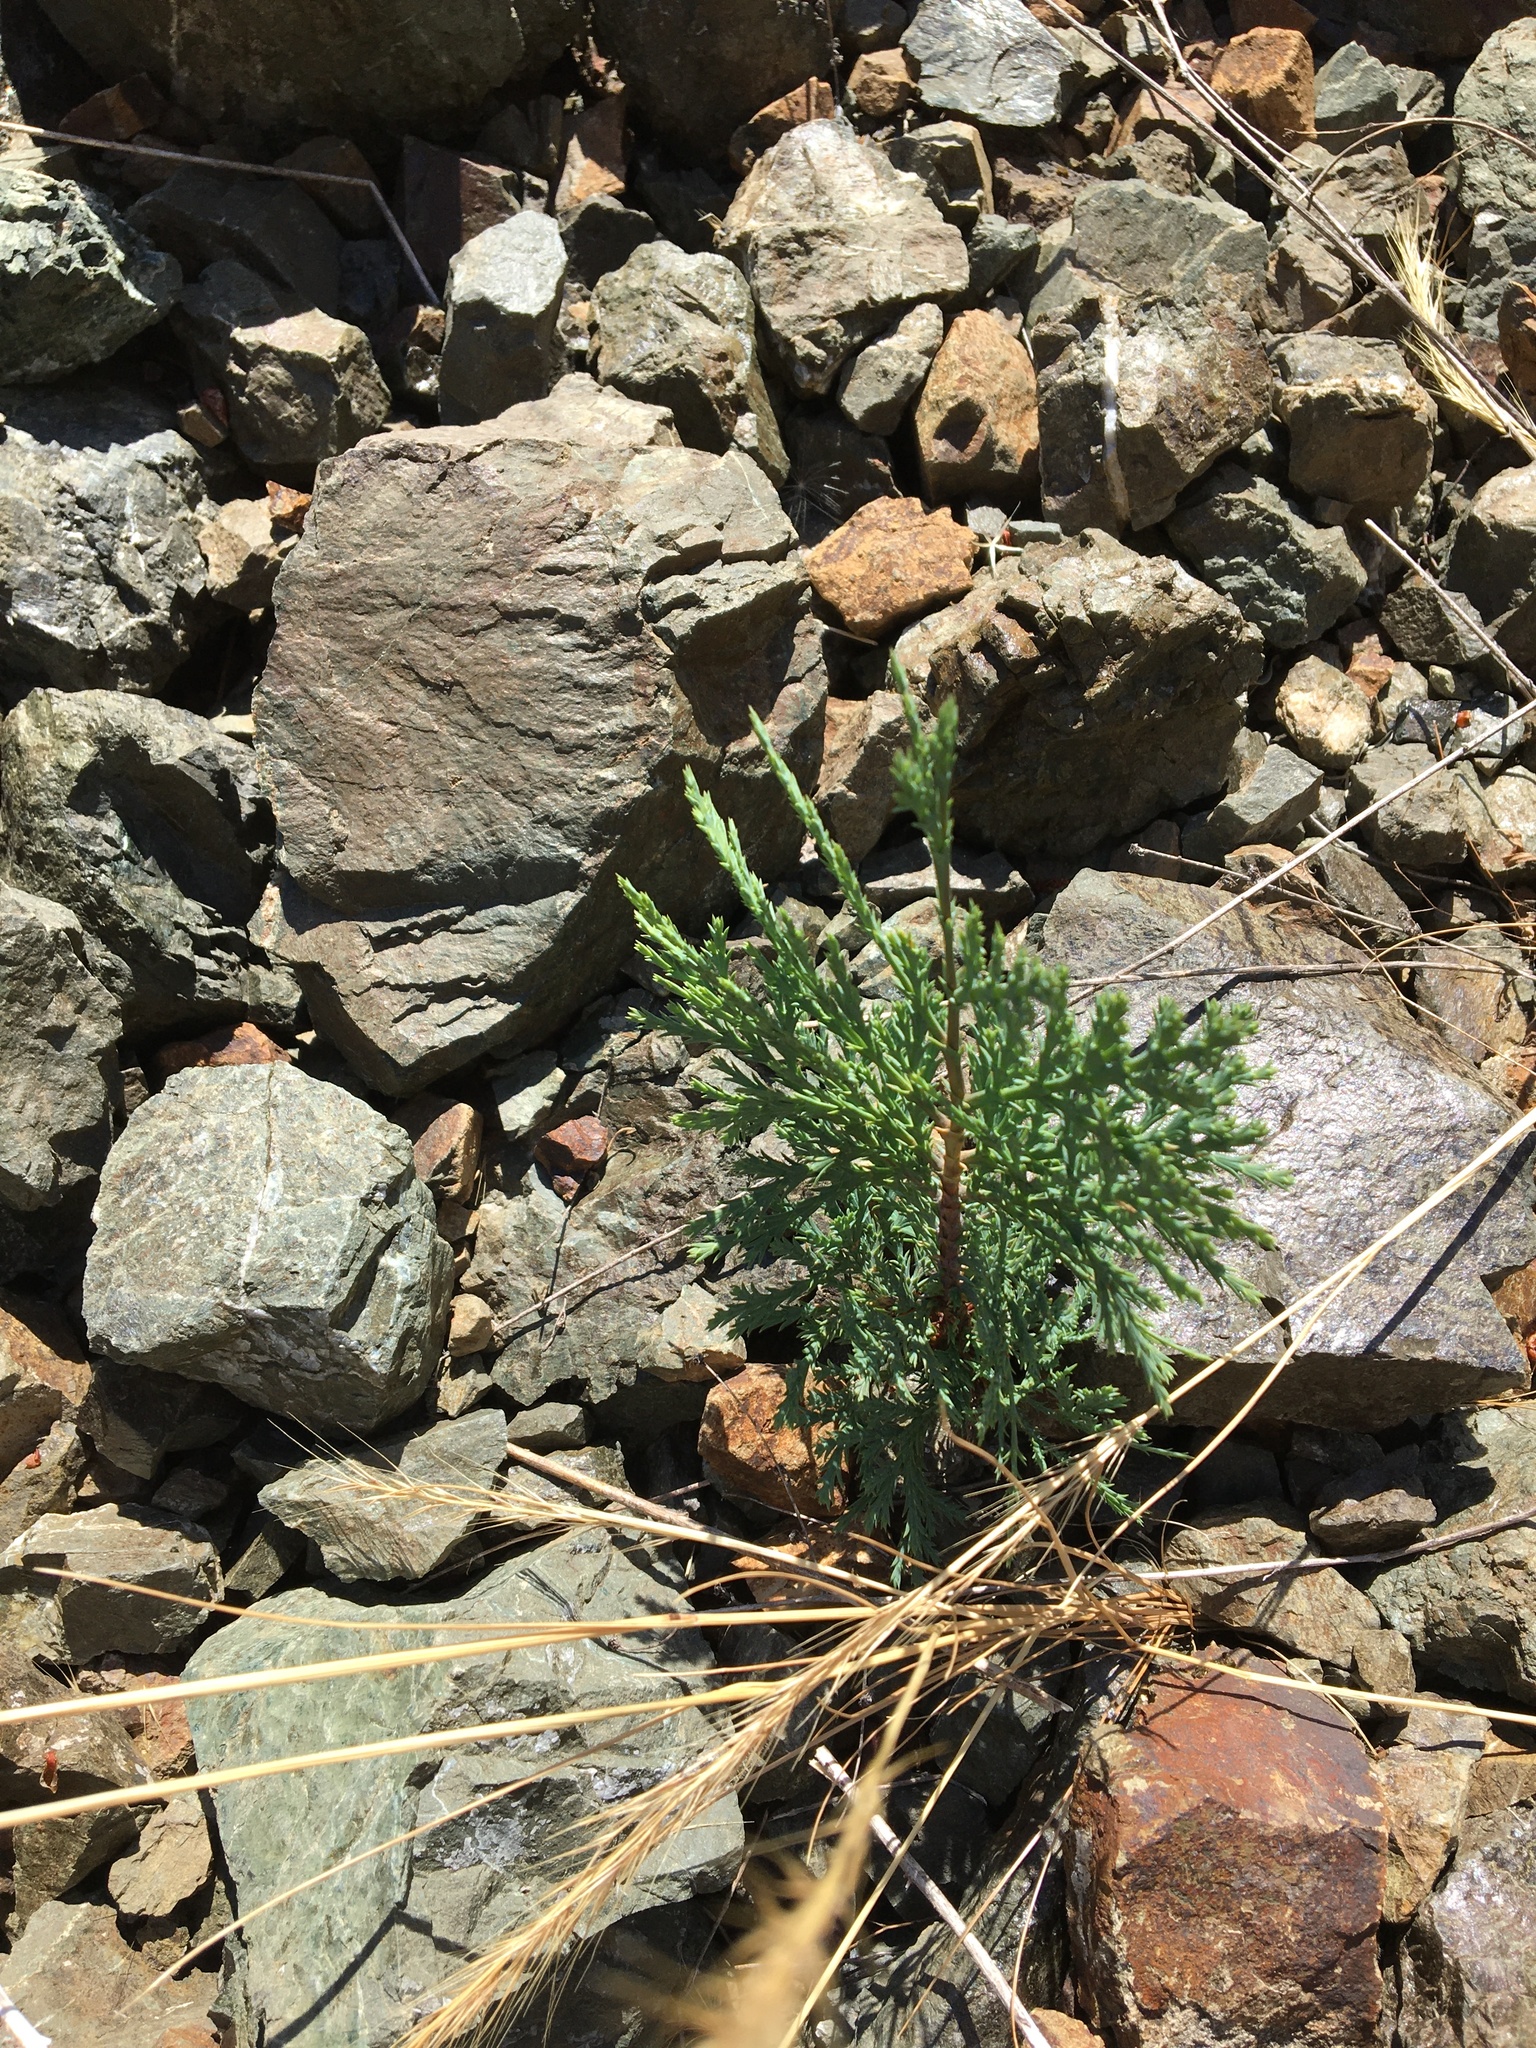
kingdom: Plantae
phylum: Tracheophyta
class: Pinopsida
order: Pinales
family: Cupressaceae
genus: Calocedrus
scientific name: Calocedrus decurrens
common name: Californian incense-cedar
